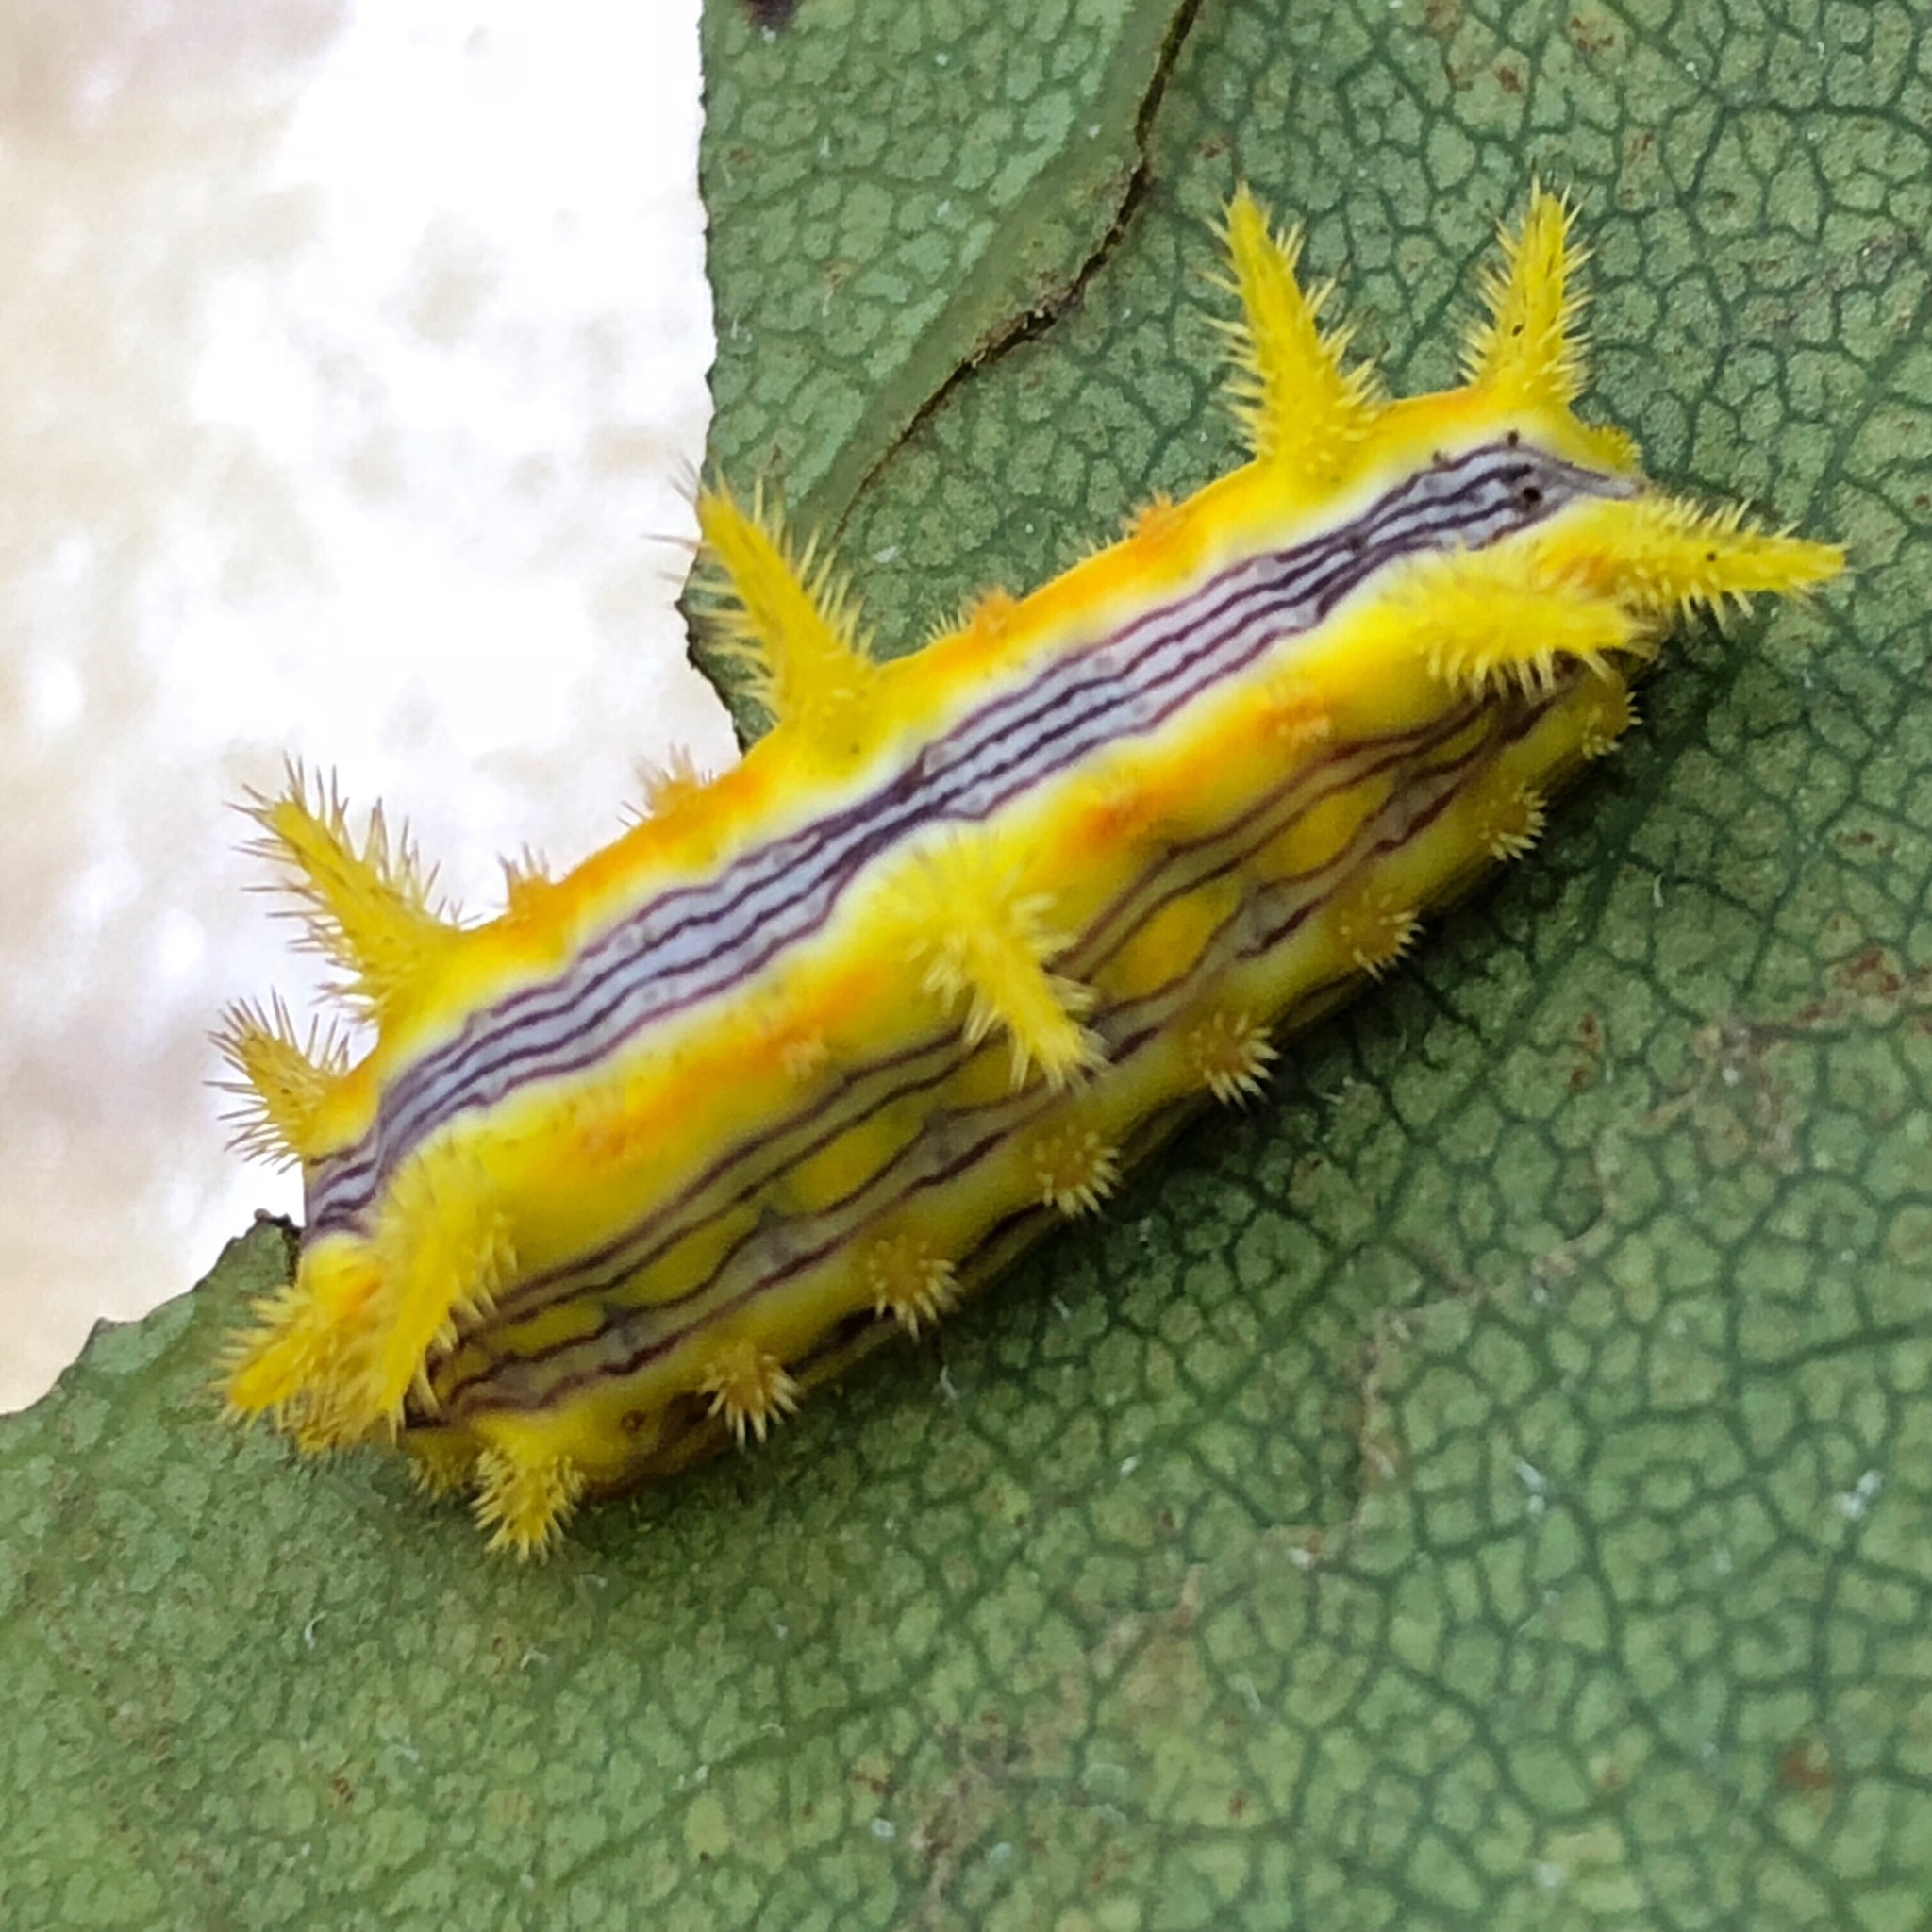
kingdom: Animalia
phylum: Arthropoda
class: Insecta
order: Lepidoptera
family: Limacodidae
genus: Parasa
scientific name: Parasa indetermina
